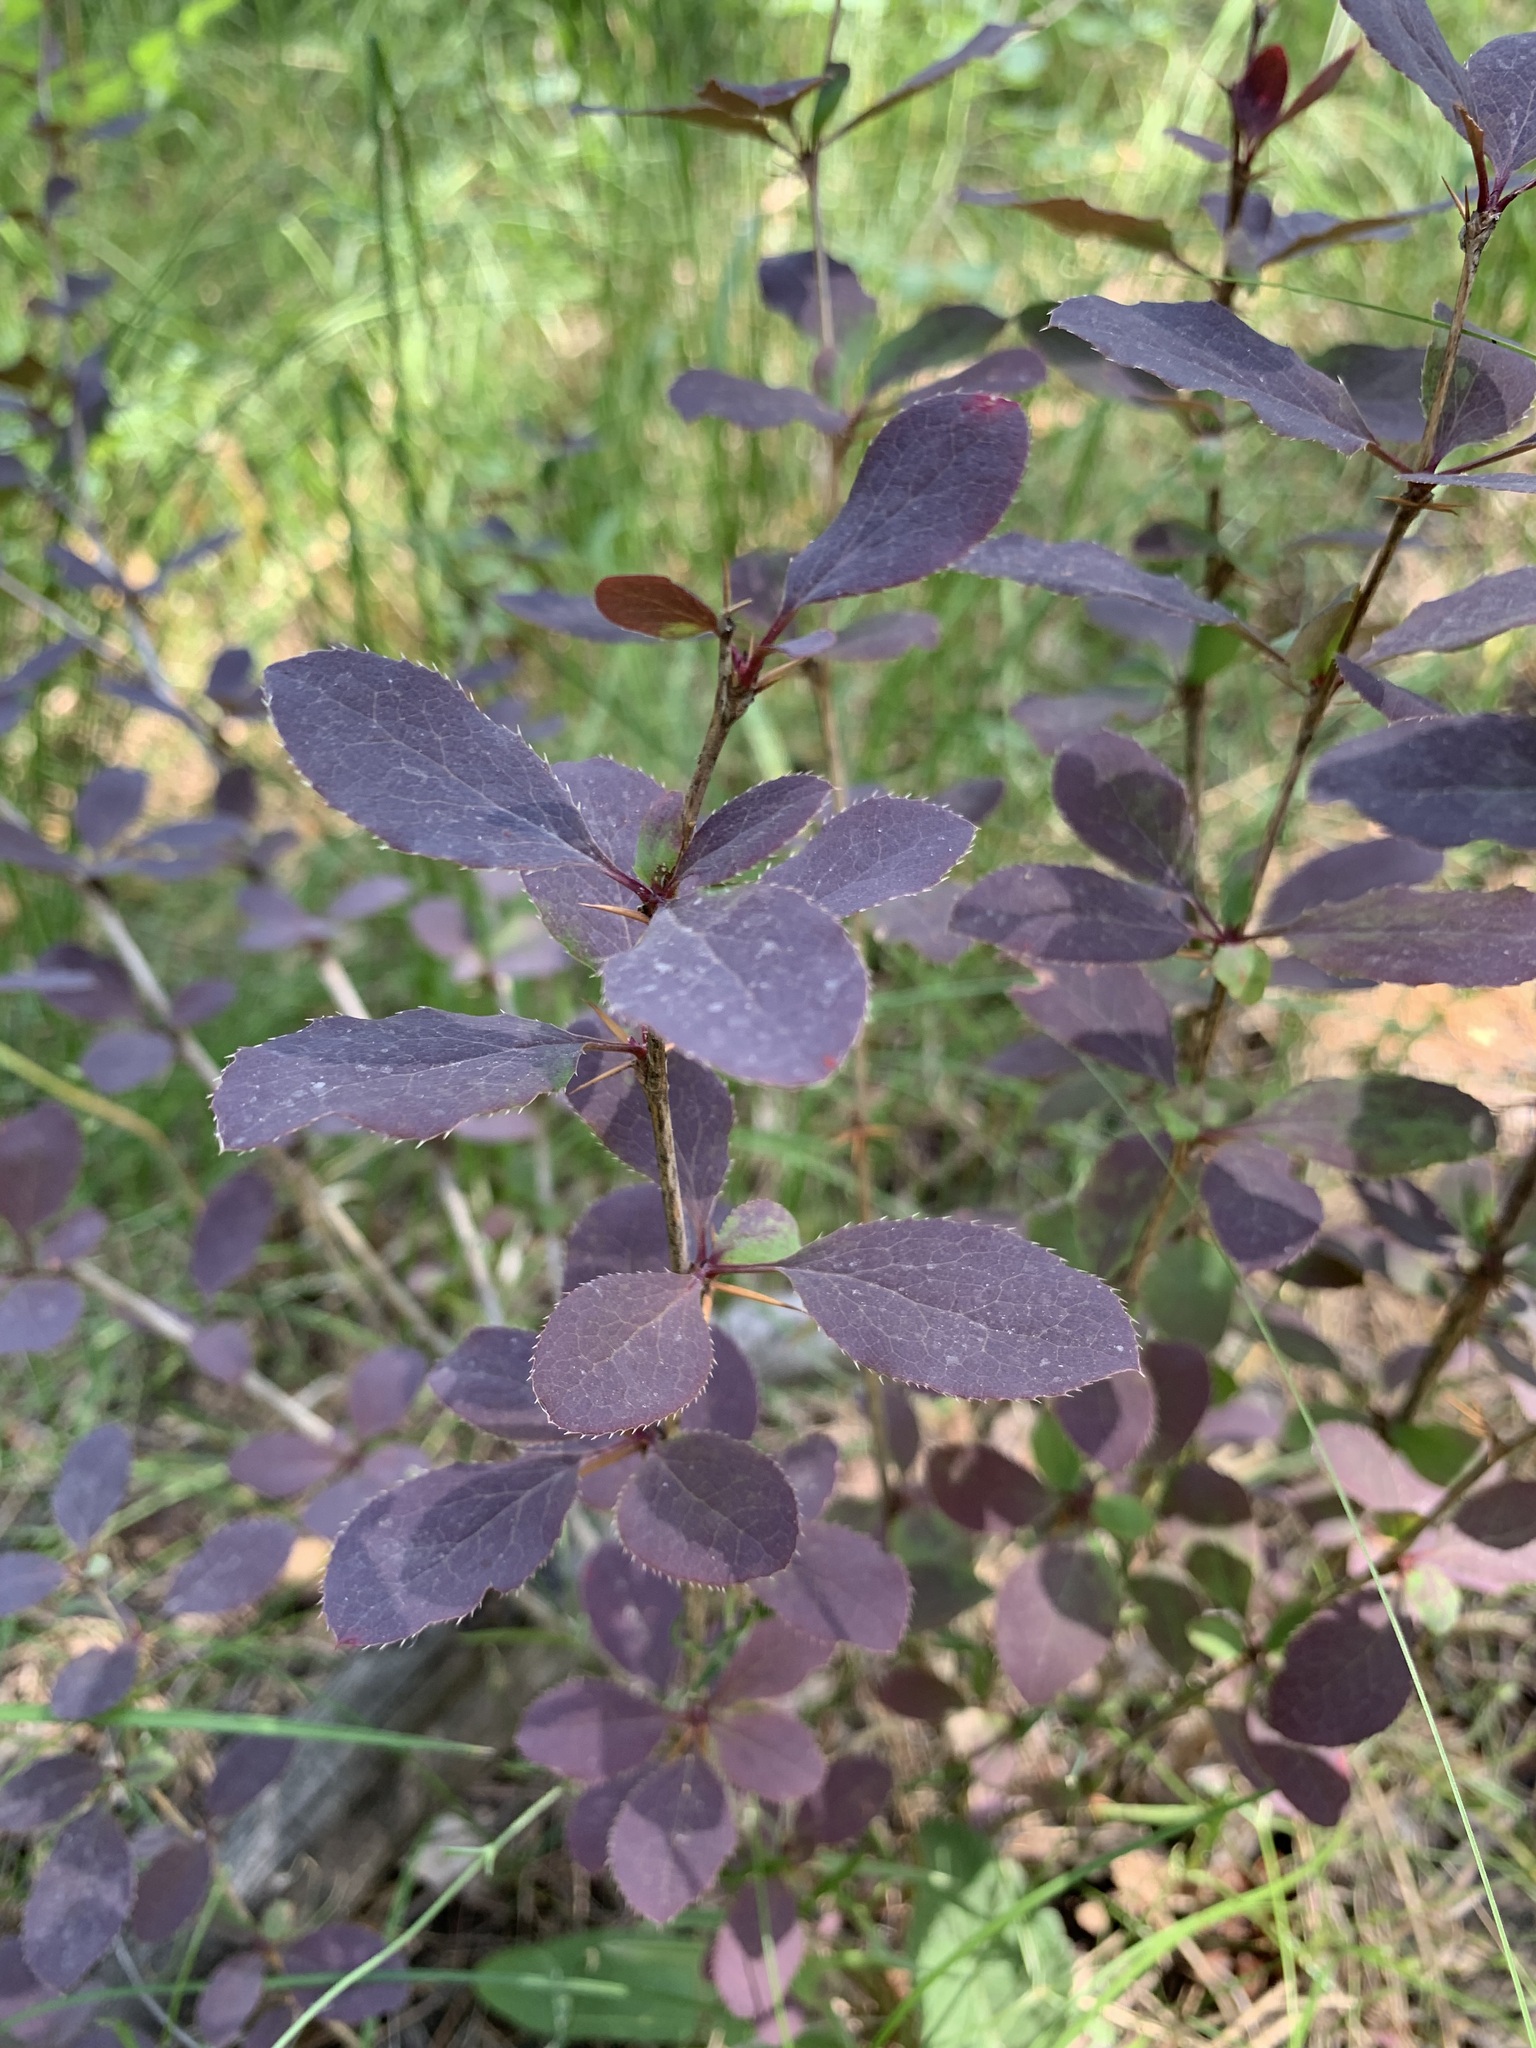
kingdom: Plantae
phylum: Tracheophyta
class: Magnoliopsida
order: Ranunculales
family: Berberidaceae
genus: Berberis
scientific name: Berberis thunbergii
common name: Japanese barberry
